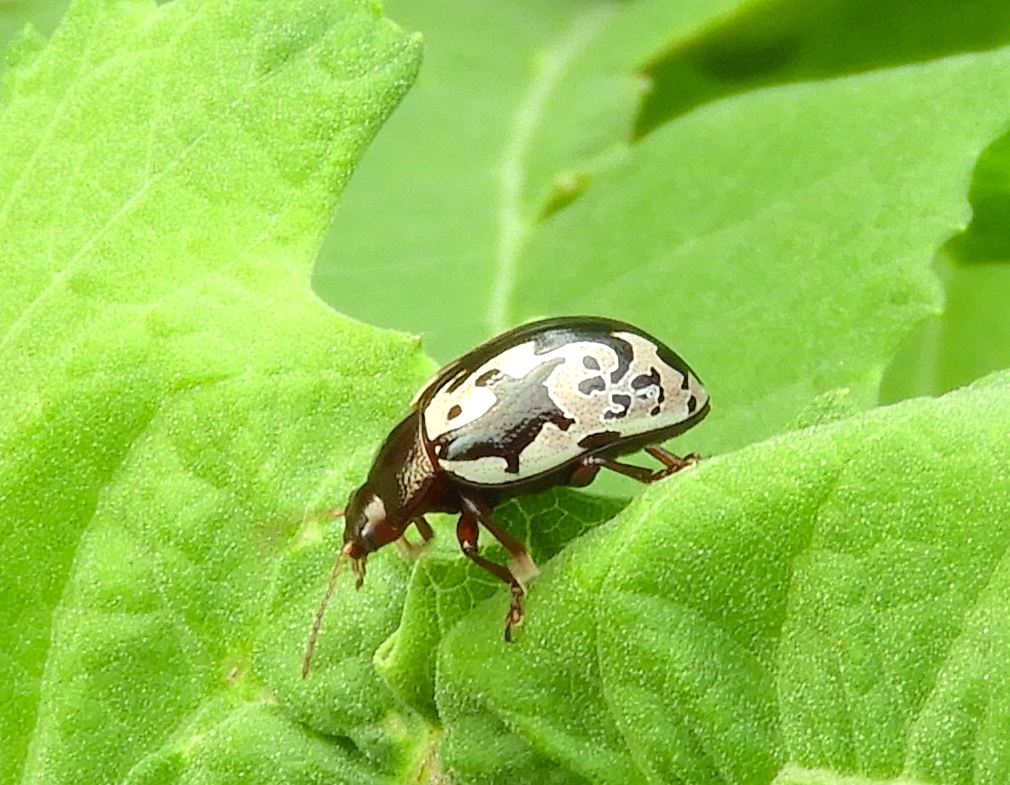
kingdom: Animalia
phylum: Arthropoda
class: Insecta
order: Coleoptera
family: Chrysomelidae
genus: Calligrapha
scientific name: Calligrapha intermedia
